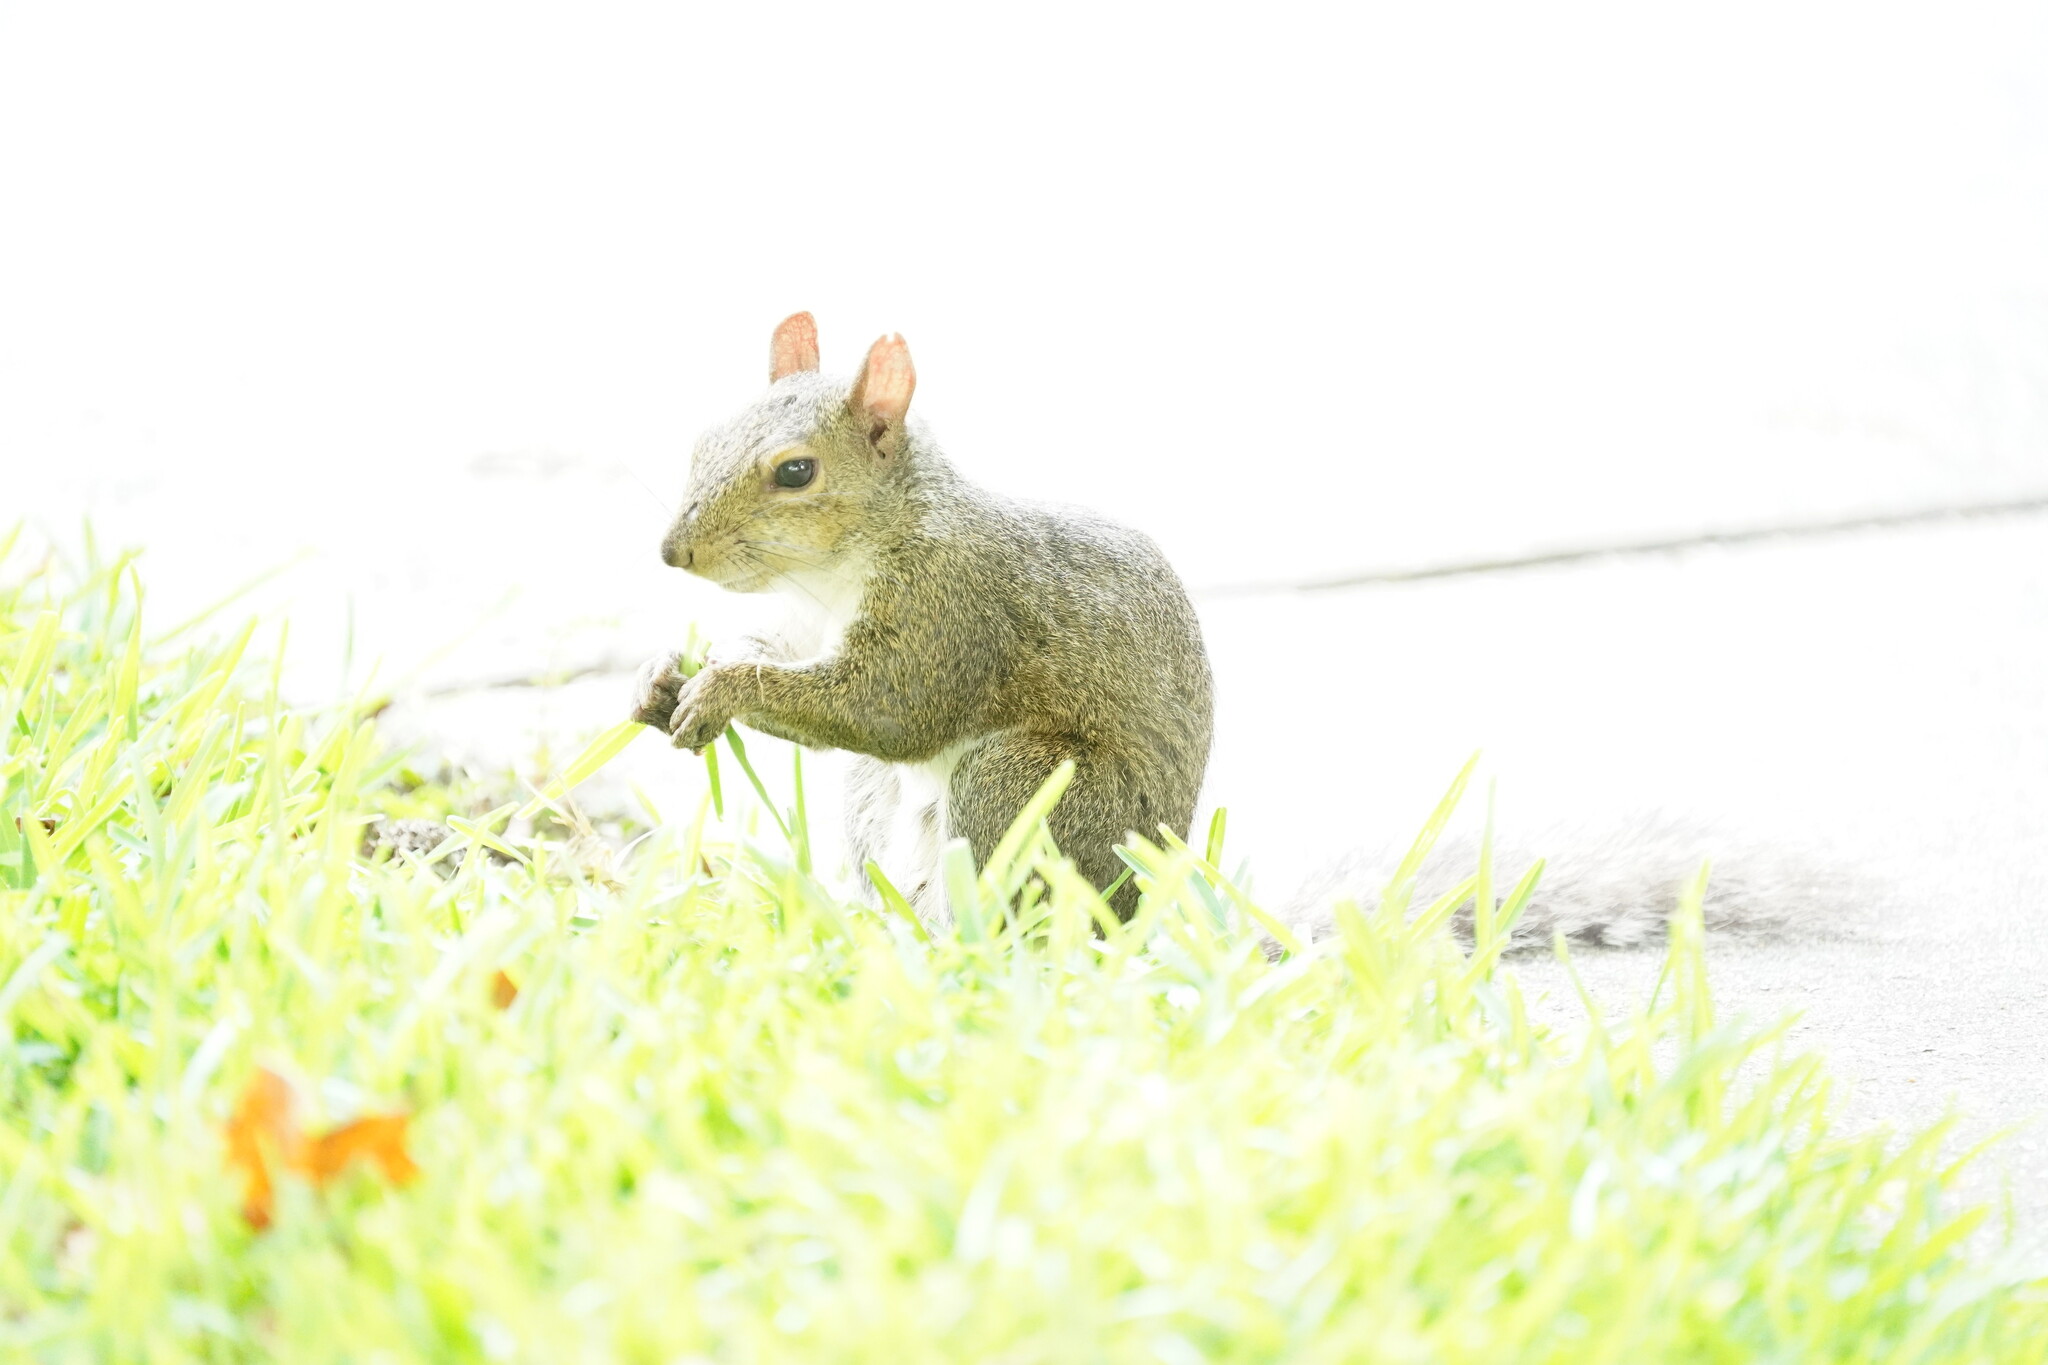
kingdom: Animalia
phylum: Chordata
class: Mammalia
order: Rodentia
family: Sciuridae
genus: Sciurus
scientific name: Sciurus carolinensis
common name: Eastern gray squirrel
